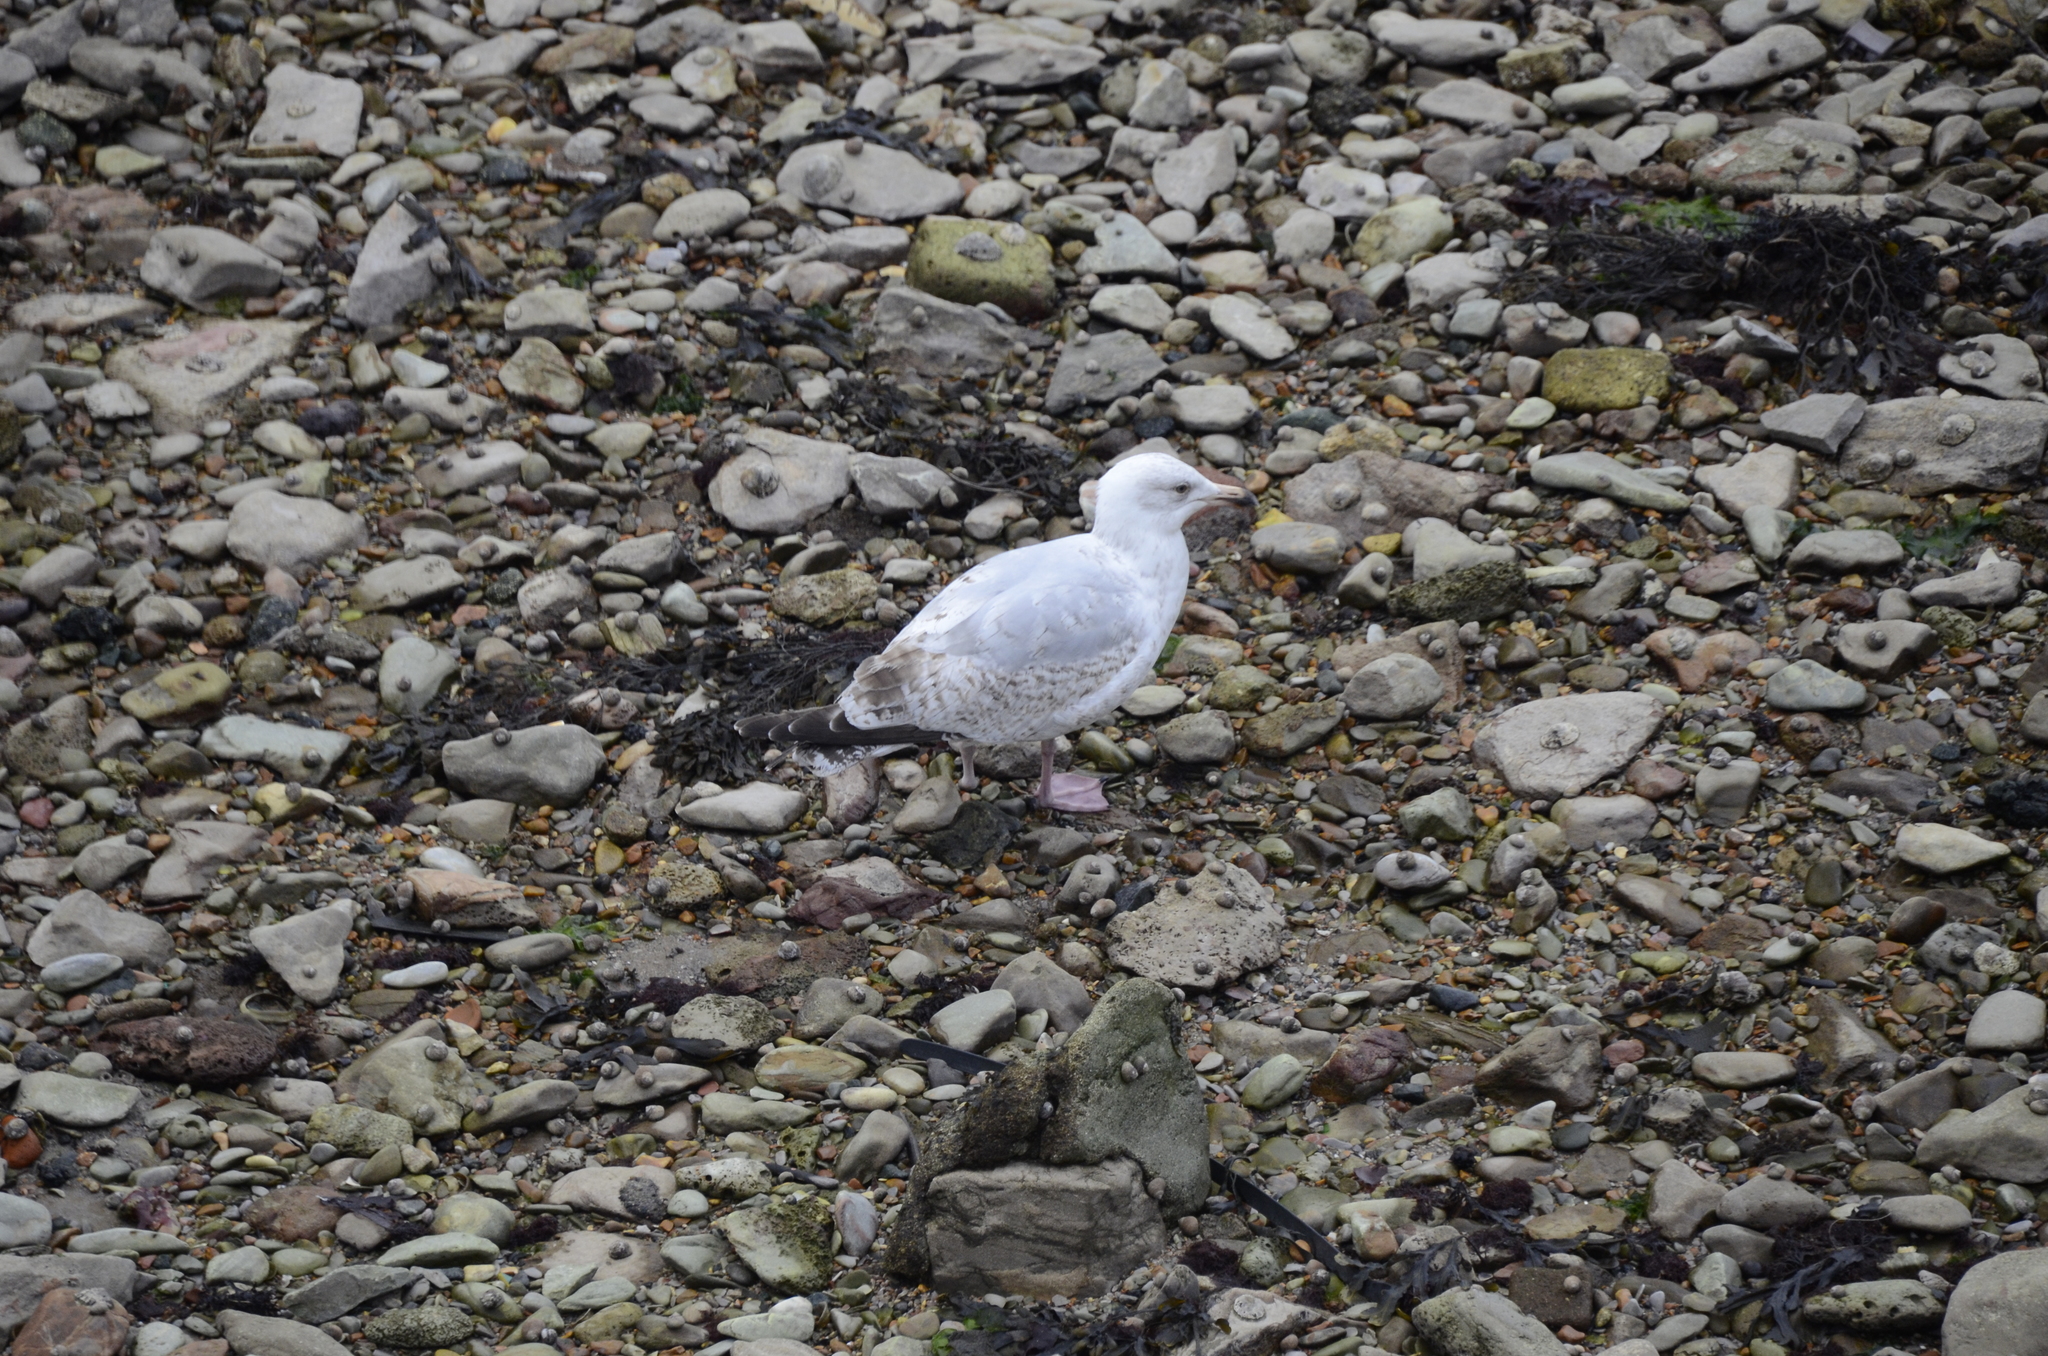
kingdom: Animalia
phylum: Chordata
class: Aves
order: Charadriiformes
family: Laridae
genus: Larus
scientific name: Larus argentatus
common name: Herring gull
